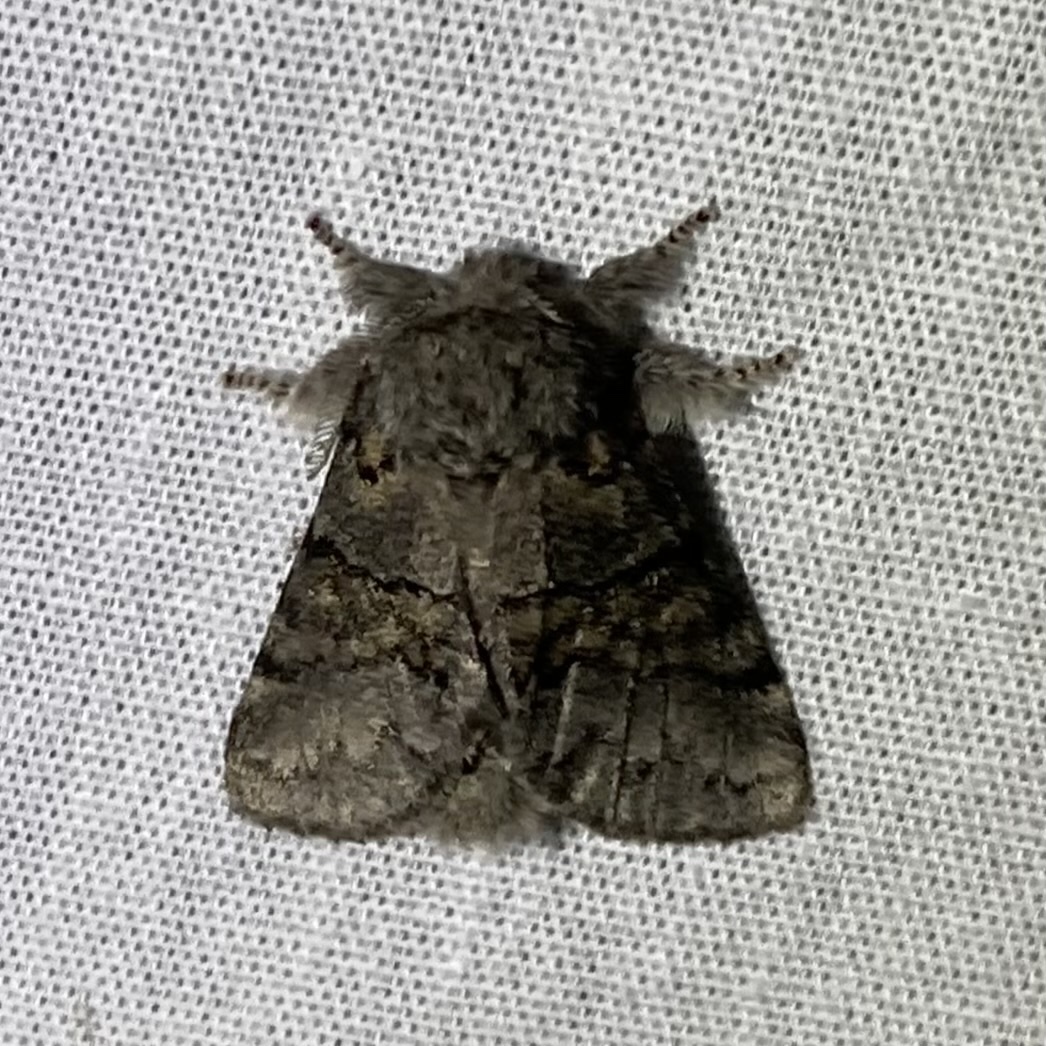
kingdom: Animalia
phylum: Arthropoda
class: Insecta
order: Lepidoptera
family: Notodontidae
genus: Gluphisia
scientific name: Gluphisia septentrionis
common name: Common gluphisia
